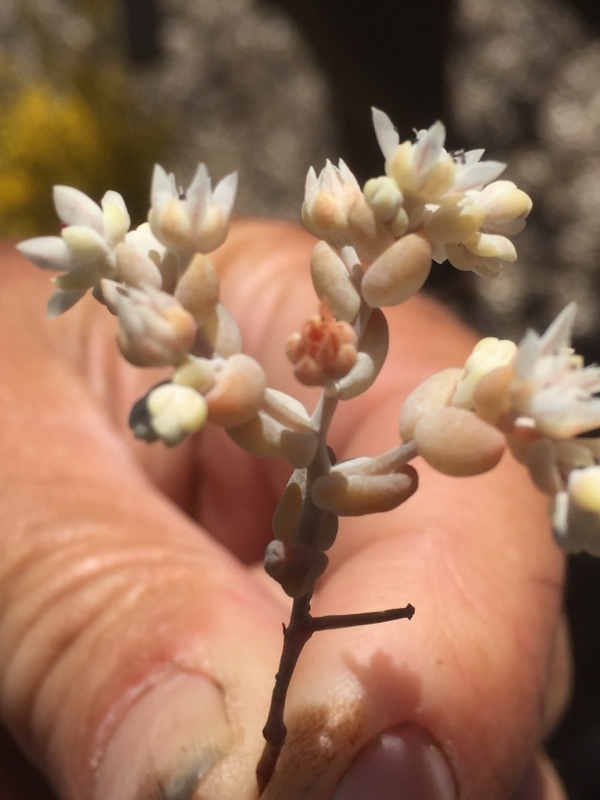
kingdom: Plantae
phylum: Tracheophyta
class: Magnoliopsida
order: Saxifragales
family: Crassulaceae
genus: Sedum
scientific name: Sedum pedicellatum
